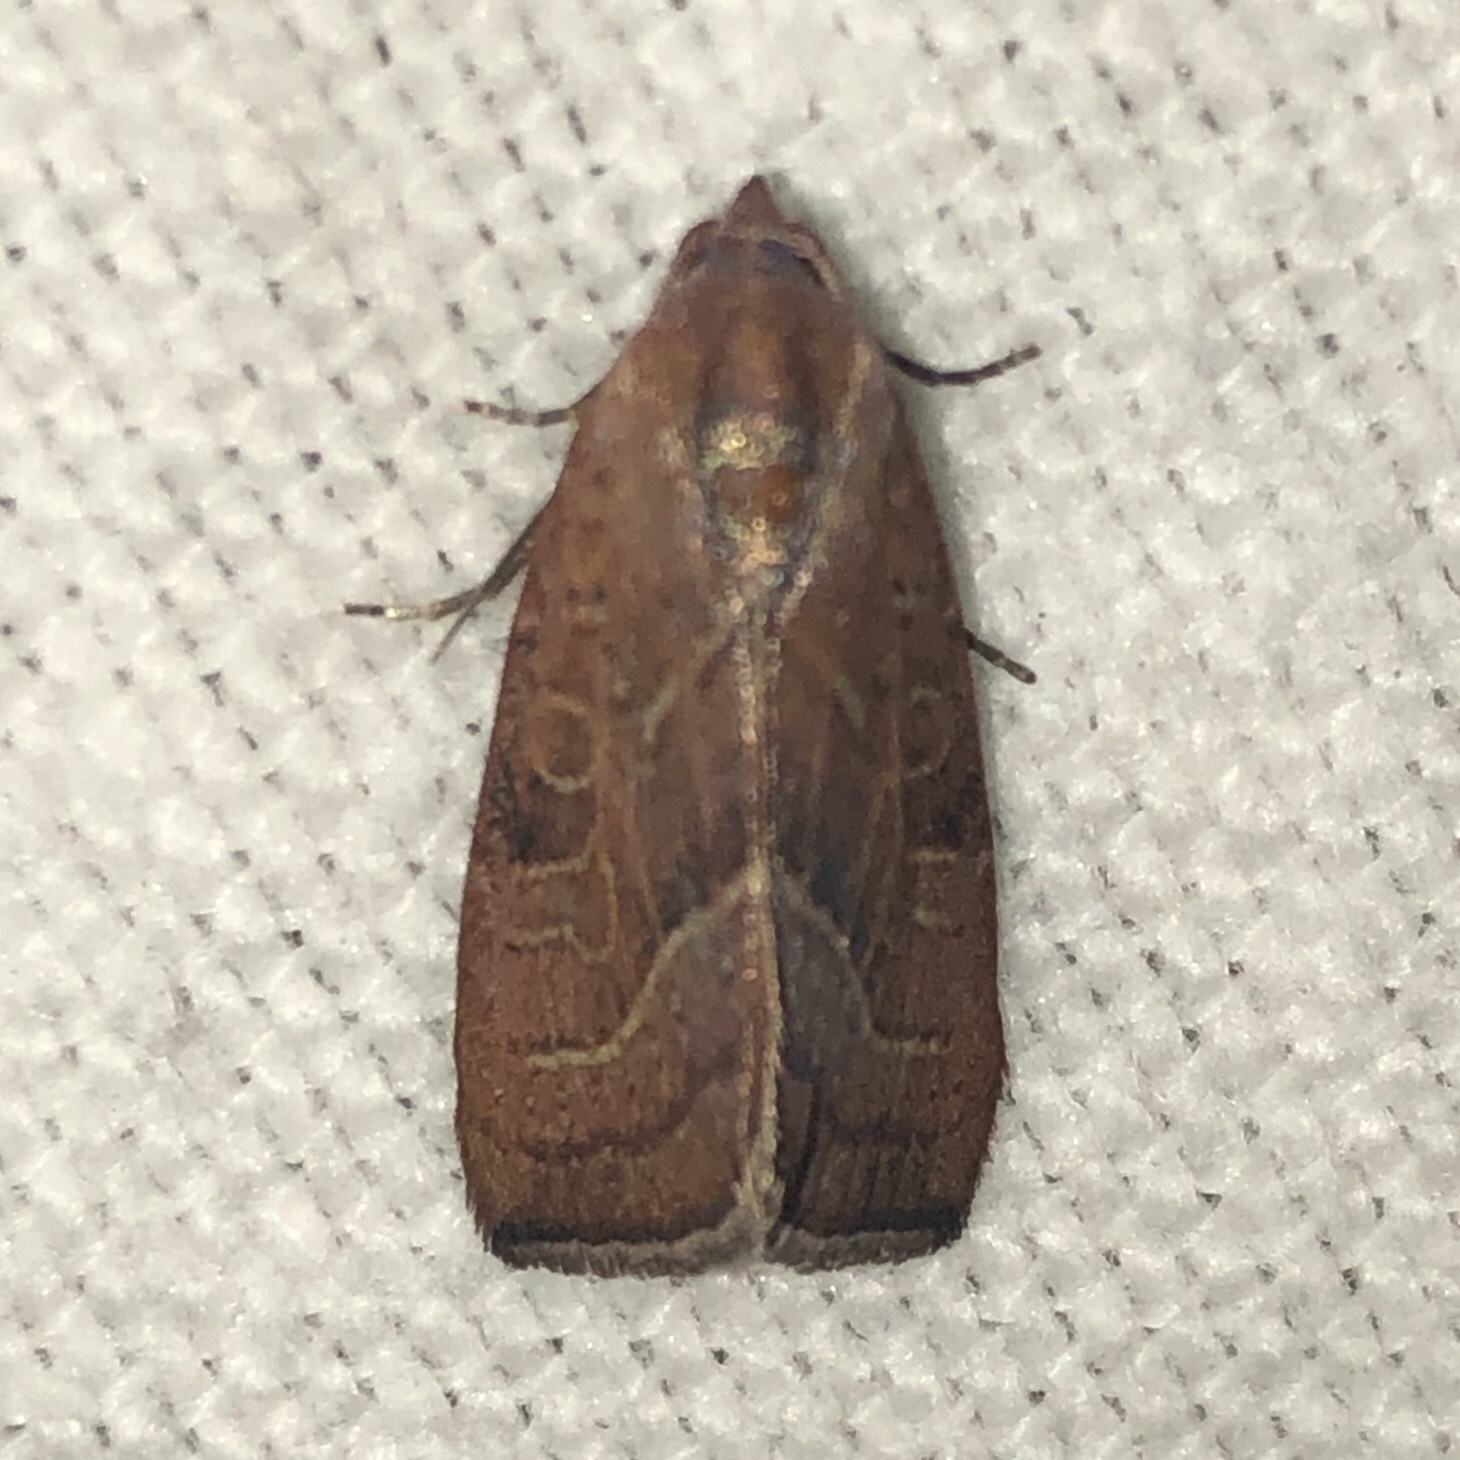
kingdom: Animalia
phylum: Arthropoda
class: Insecta
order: Lepidoptera
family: Noctuidae
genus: Galgula
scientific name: Galgula partita
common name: Wedgeling
